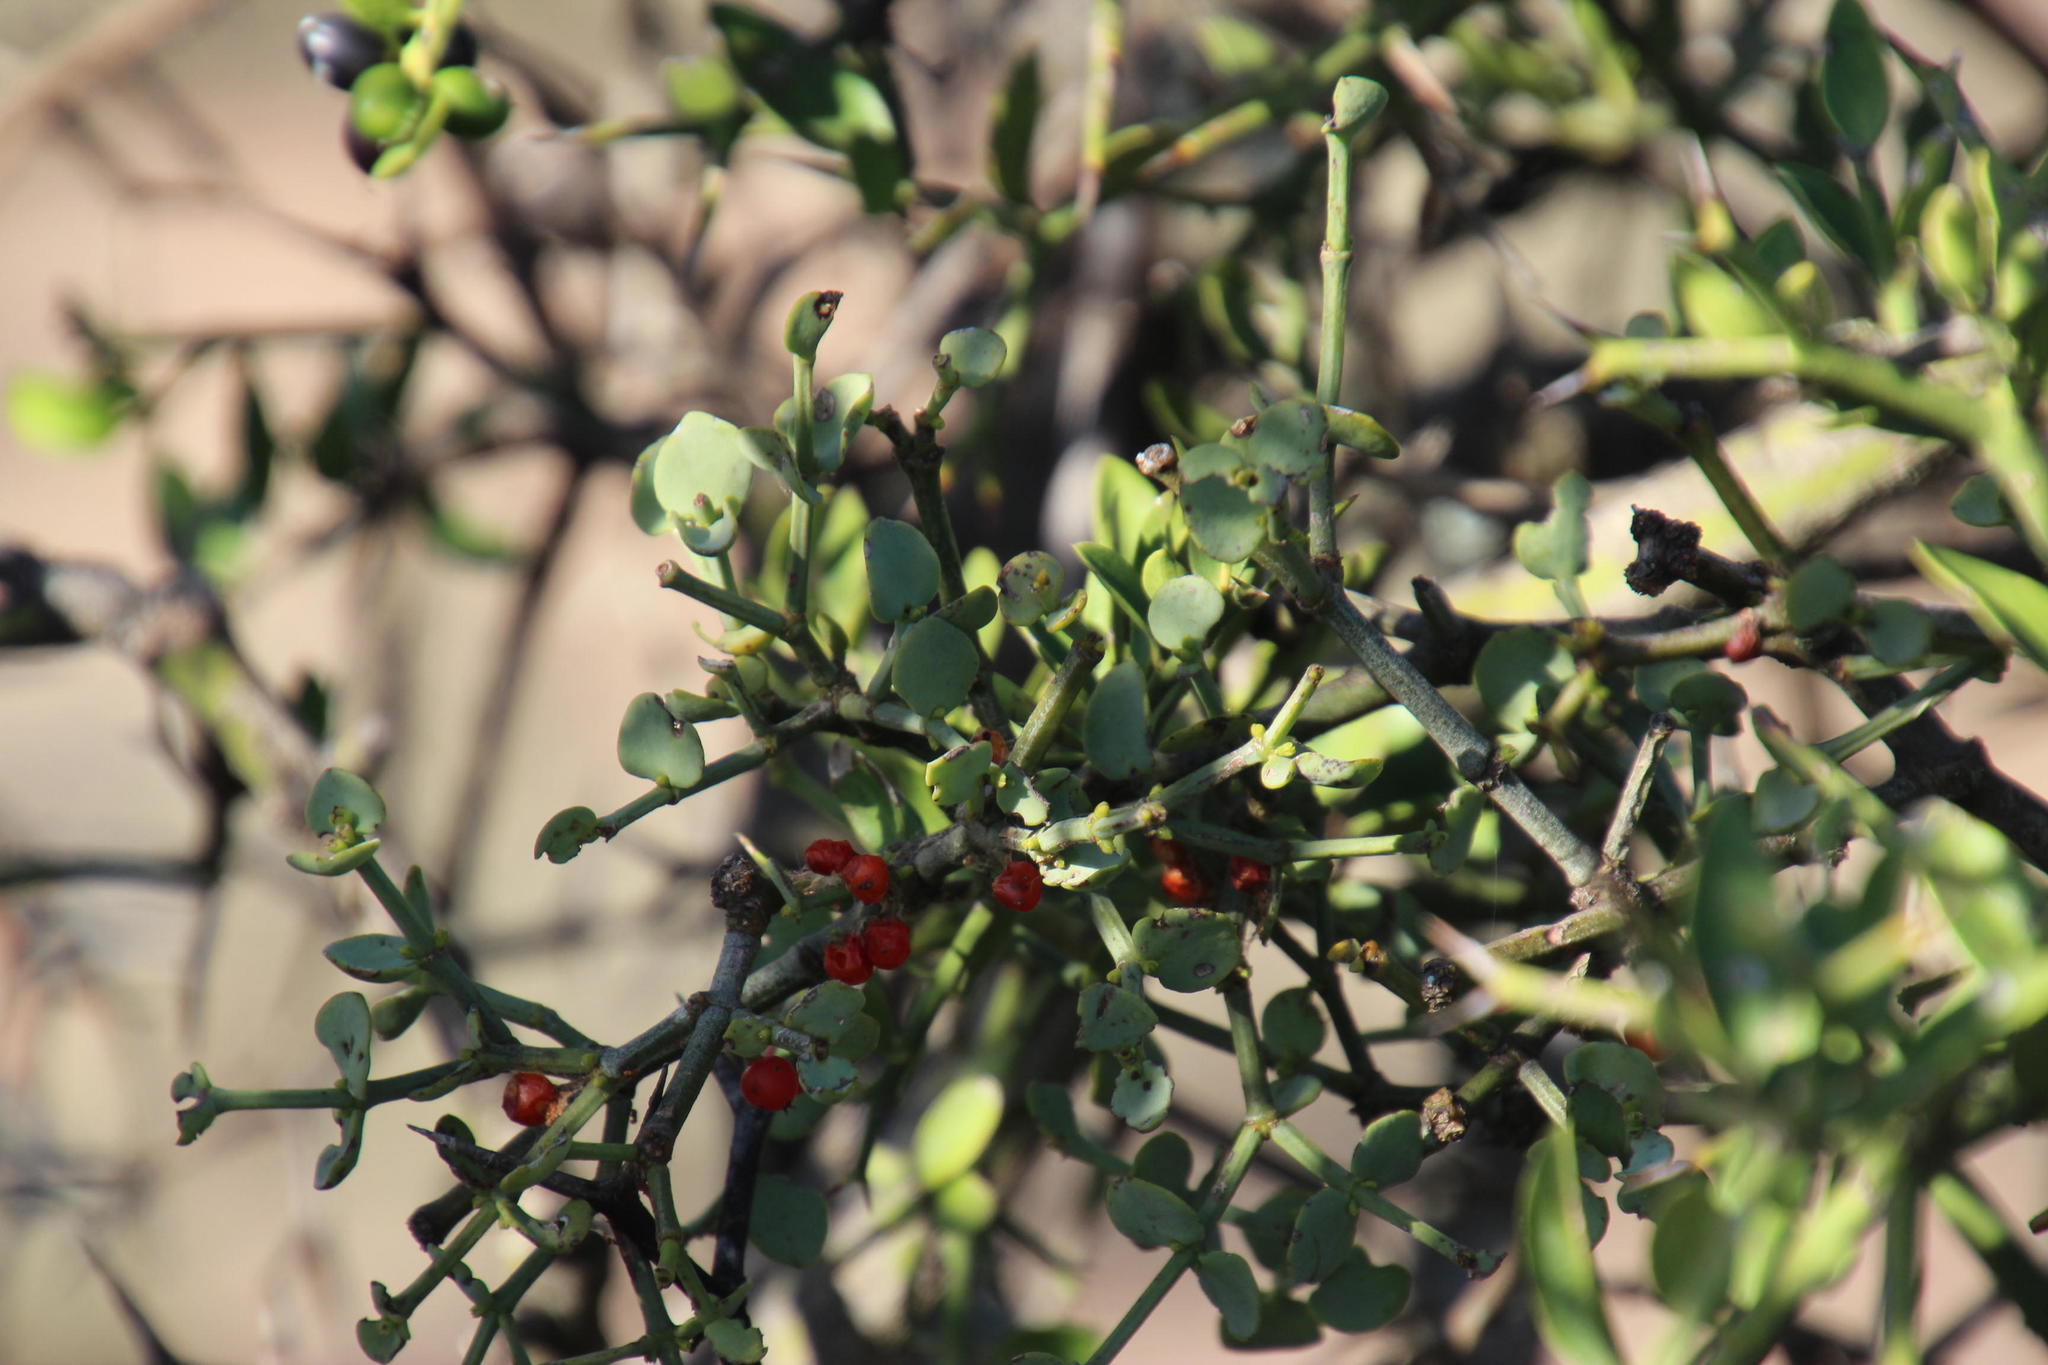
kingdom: Plantae
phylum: Tracheophyta
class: Magnoliopsida
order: Gentianales
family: Apocynaceae
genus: Carissa
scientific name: Carissa haematocarpa
